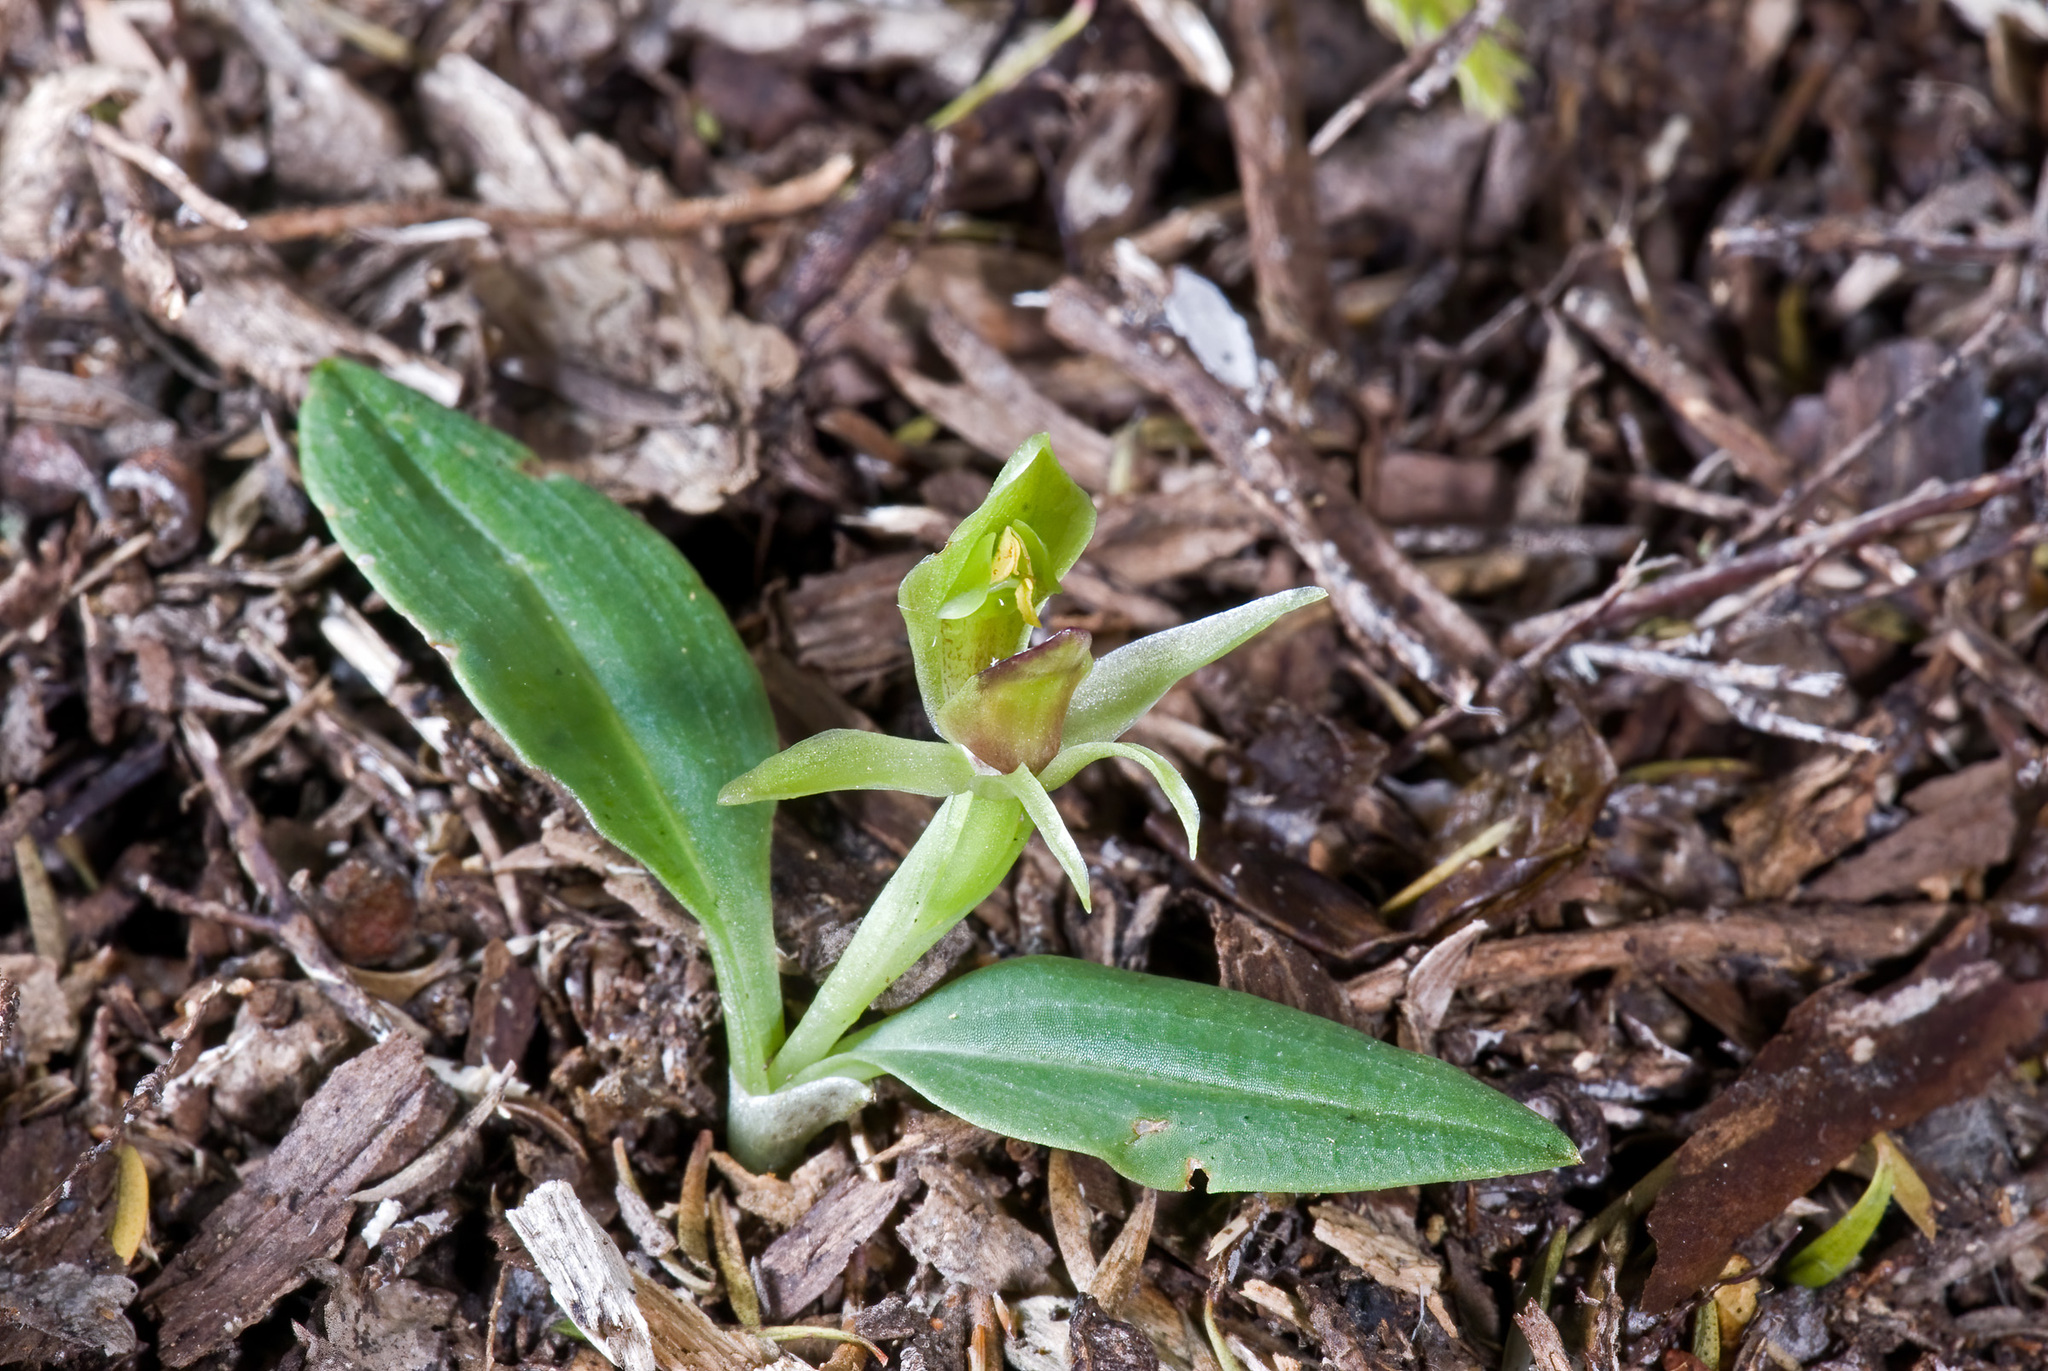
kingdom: Plantae
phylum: Tracheophyta
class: Liliopsida
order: Asparagales
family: Orchidaceae
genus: Chiloglottis
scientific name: Chiloglottis cornuta
